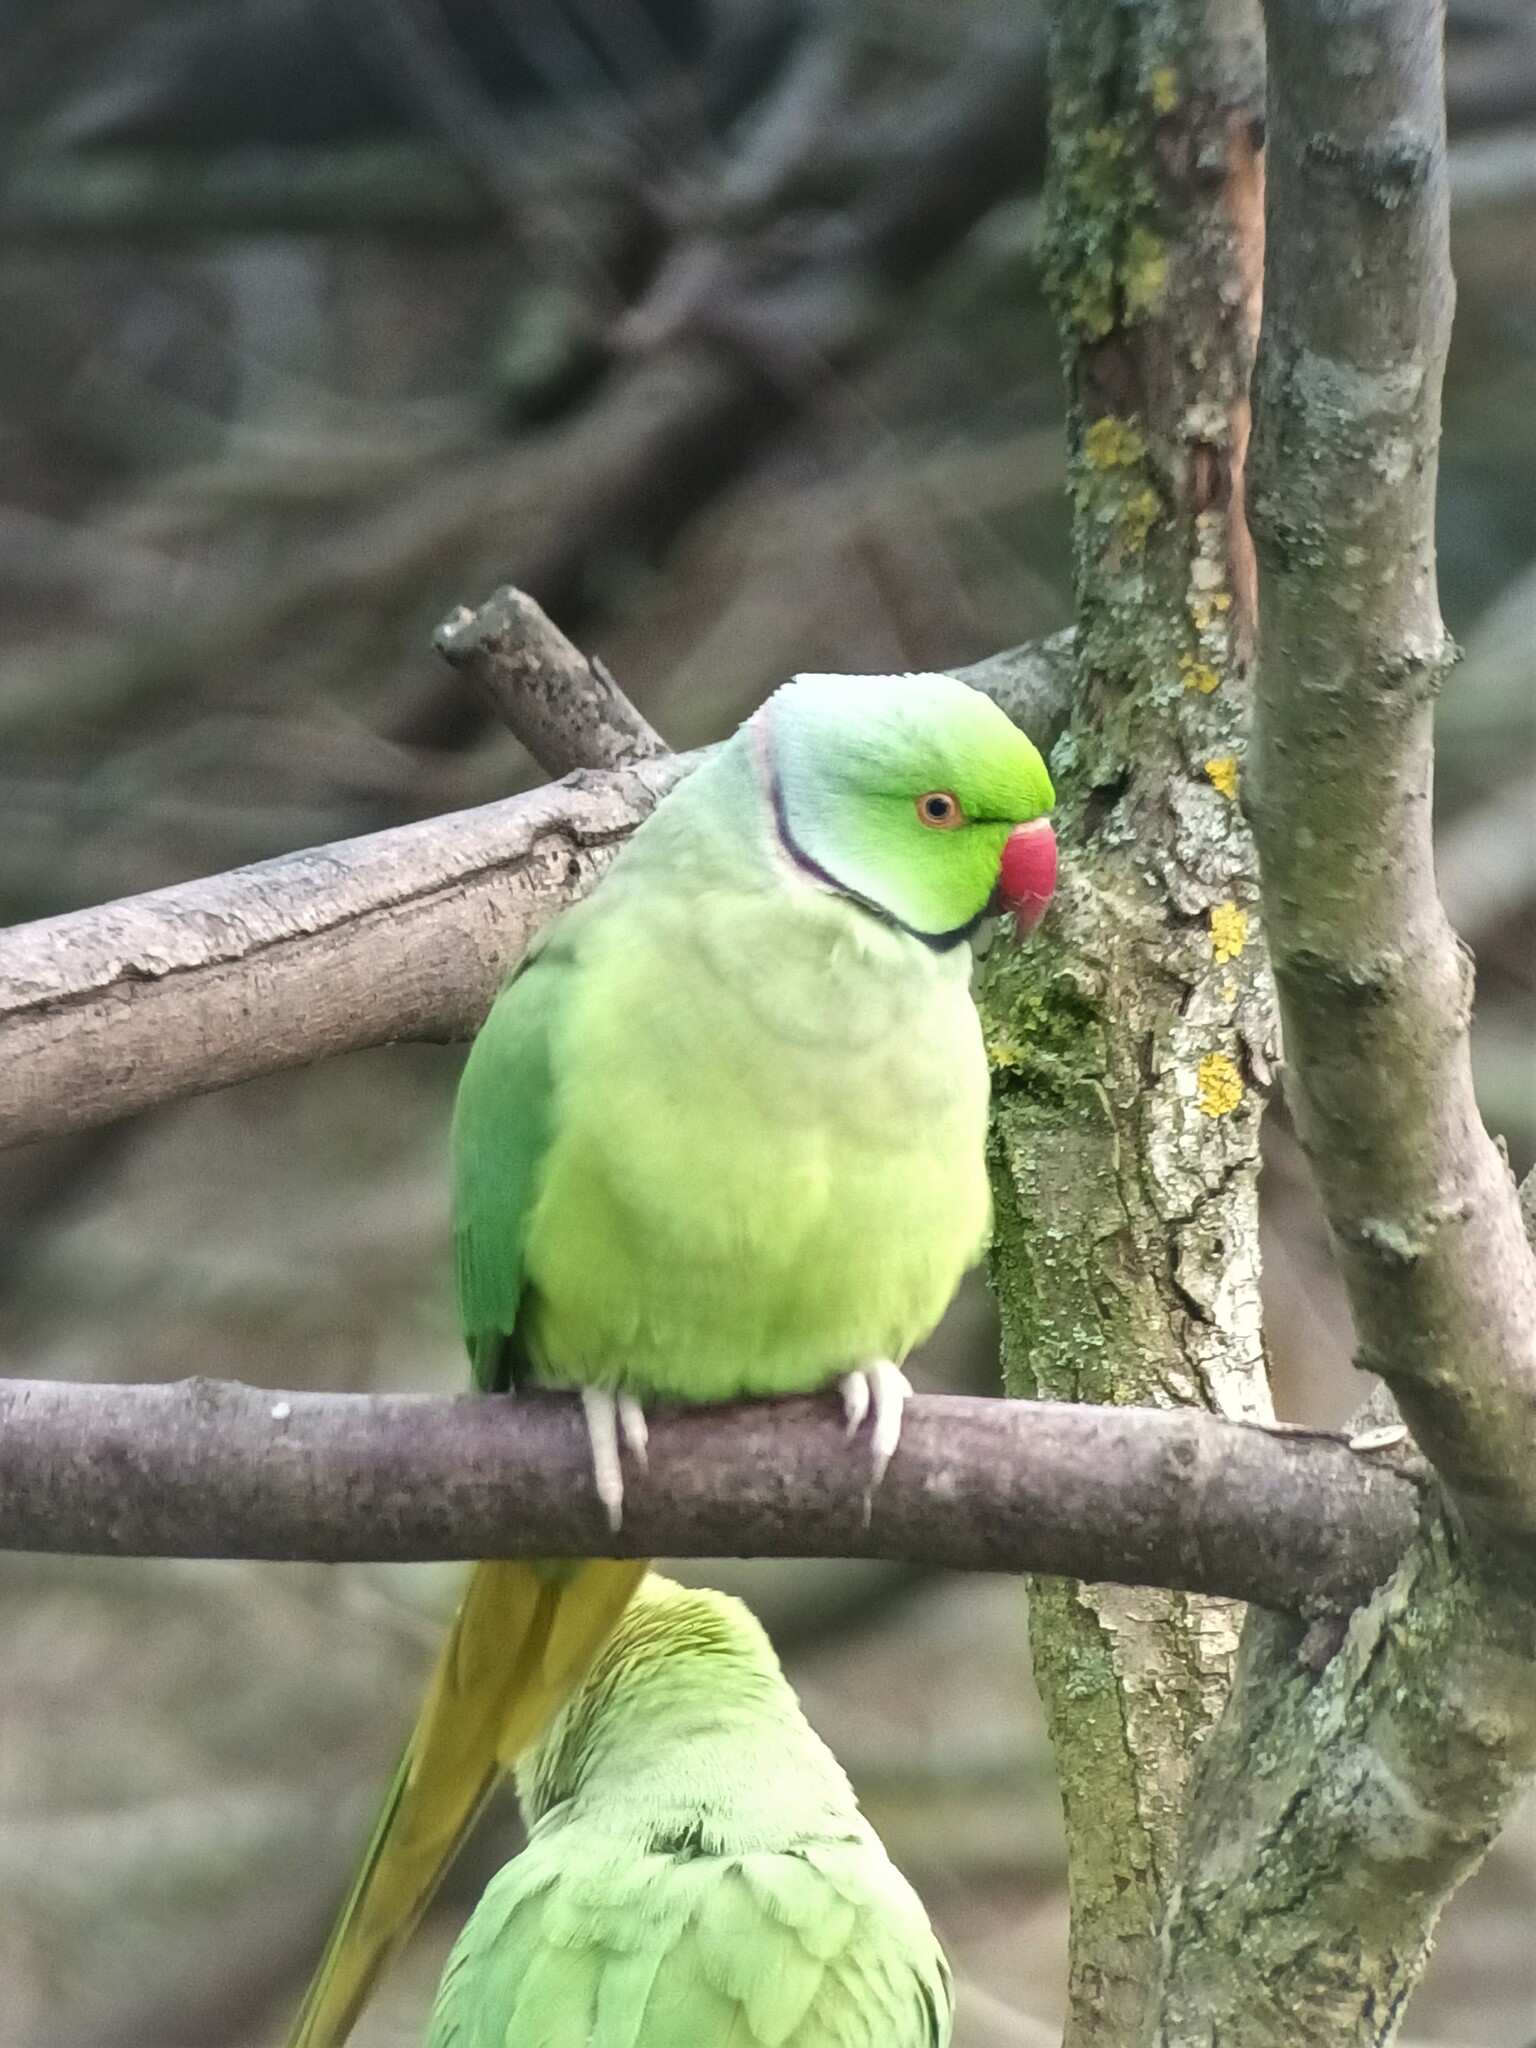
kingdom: Animalia
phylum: Chordata
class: Aves
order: Psittaciformes
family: Psittacidae
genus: Psittacula
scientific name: Psittacula krameri
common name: Rose-ringed parakeet
